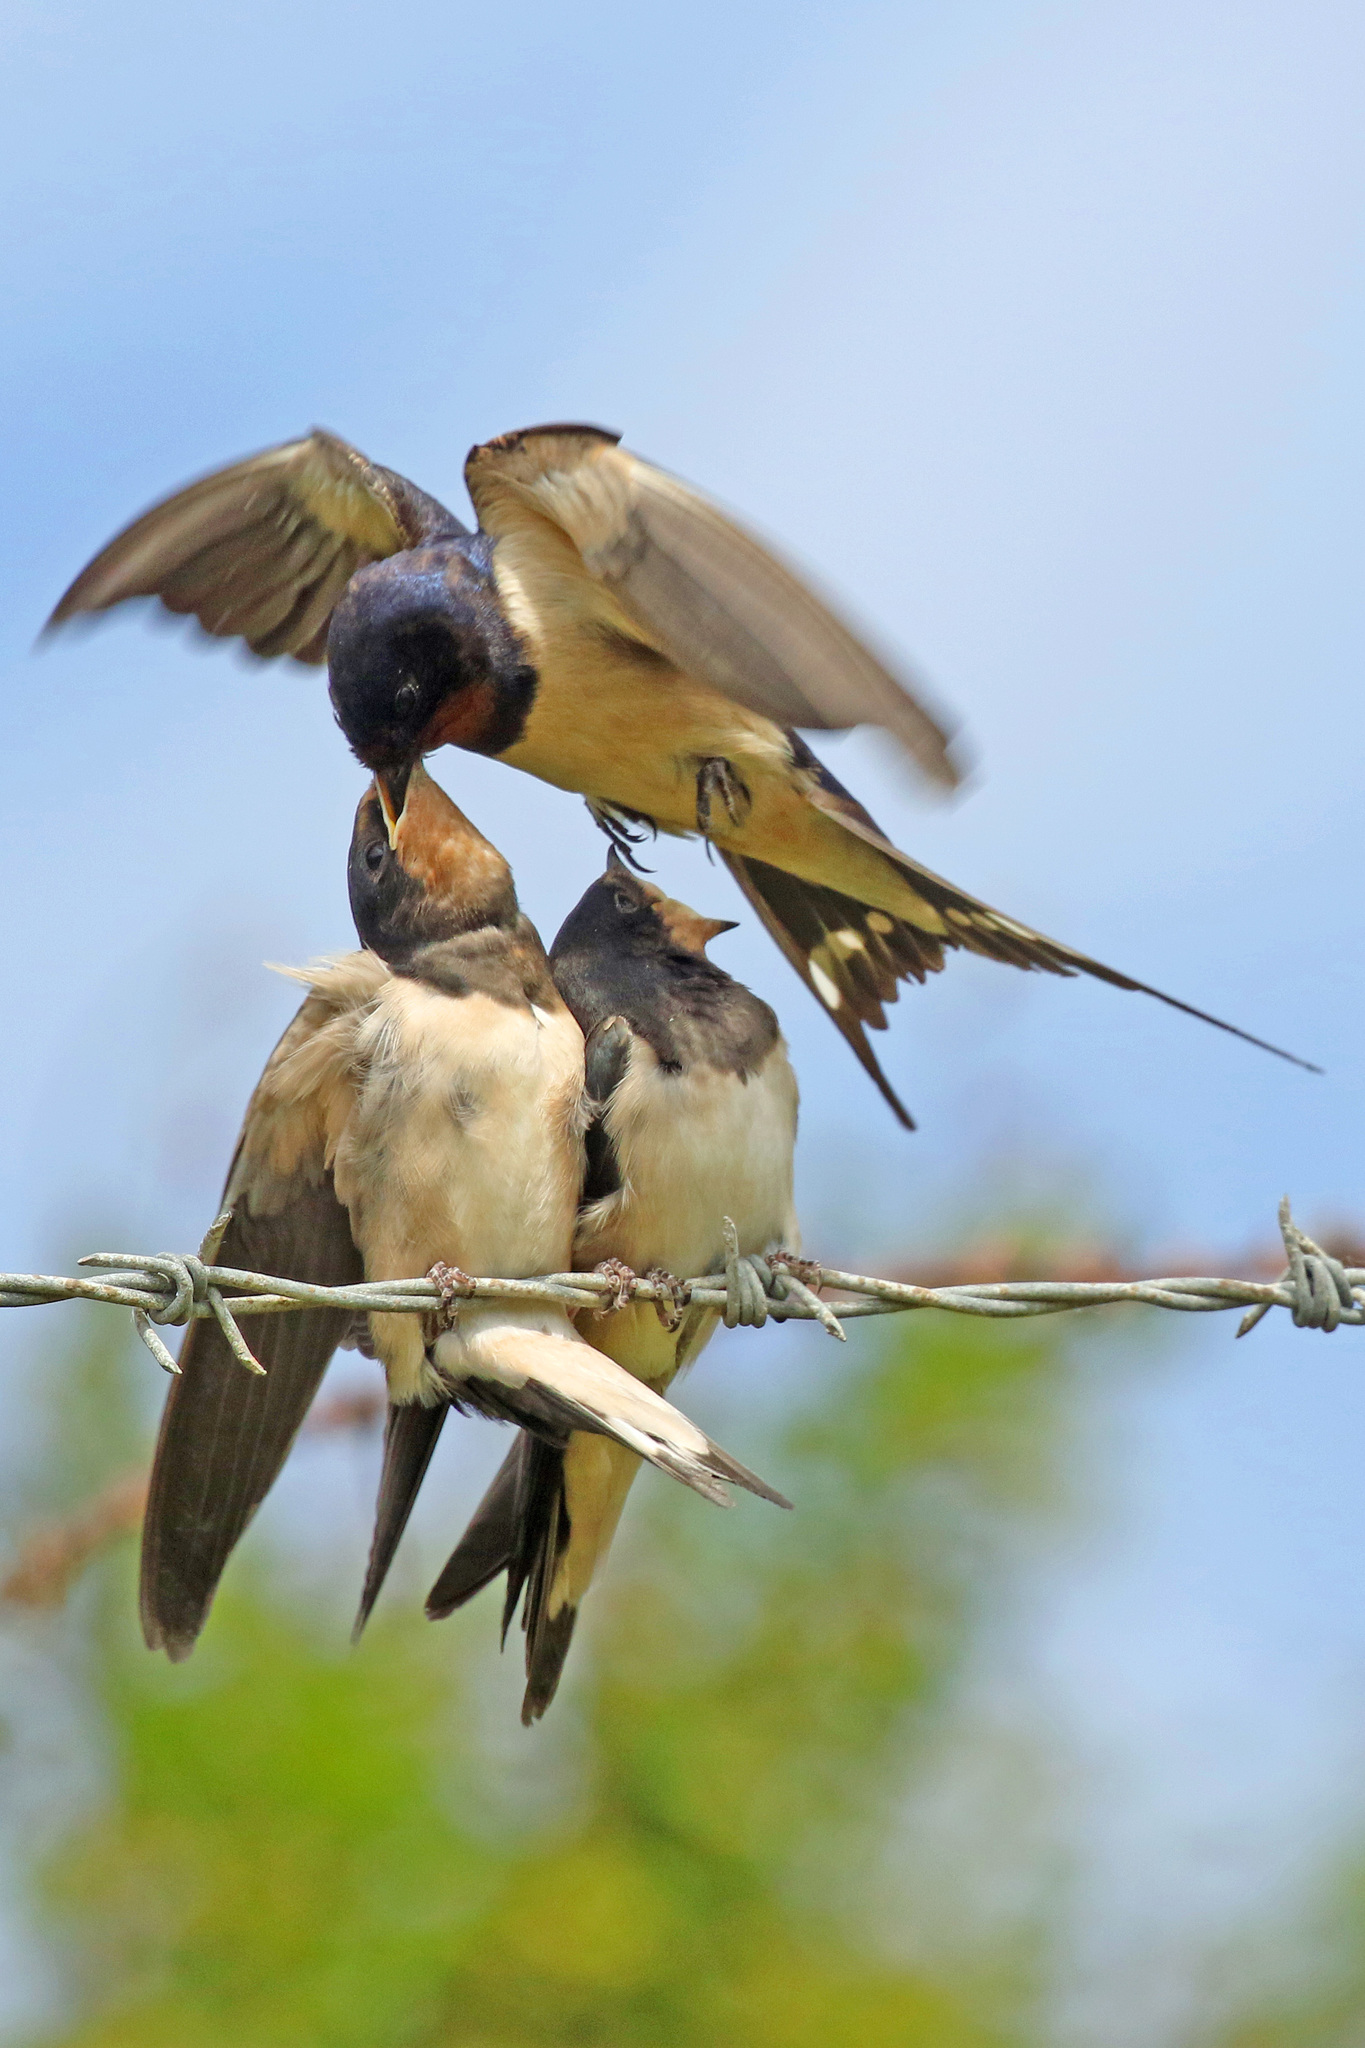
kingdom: Animalia
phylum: Chordata
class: Aves
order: Passeriformes
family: Hirundinidae
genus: Hirundo
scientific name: Hirundo rustica
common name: Barn swallow
